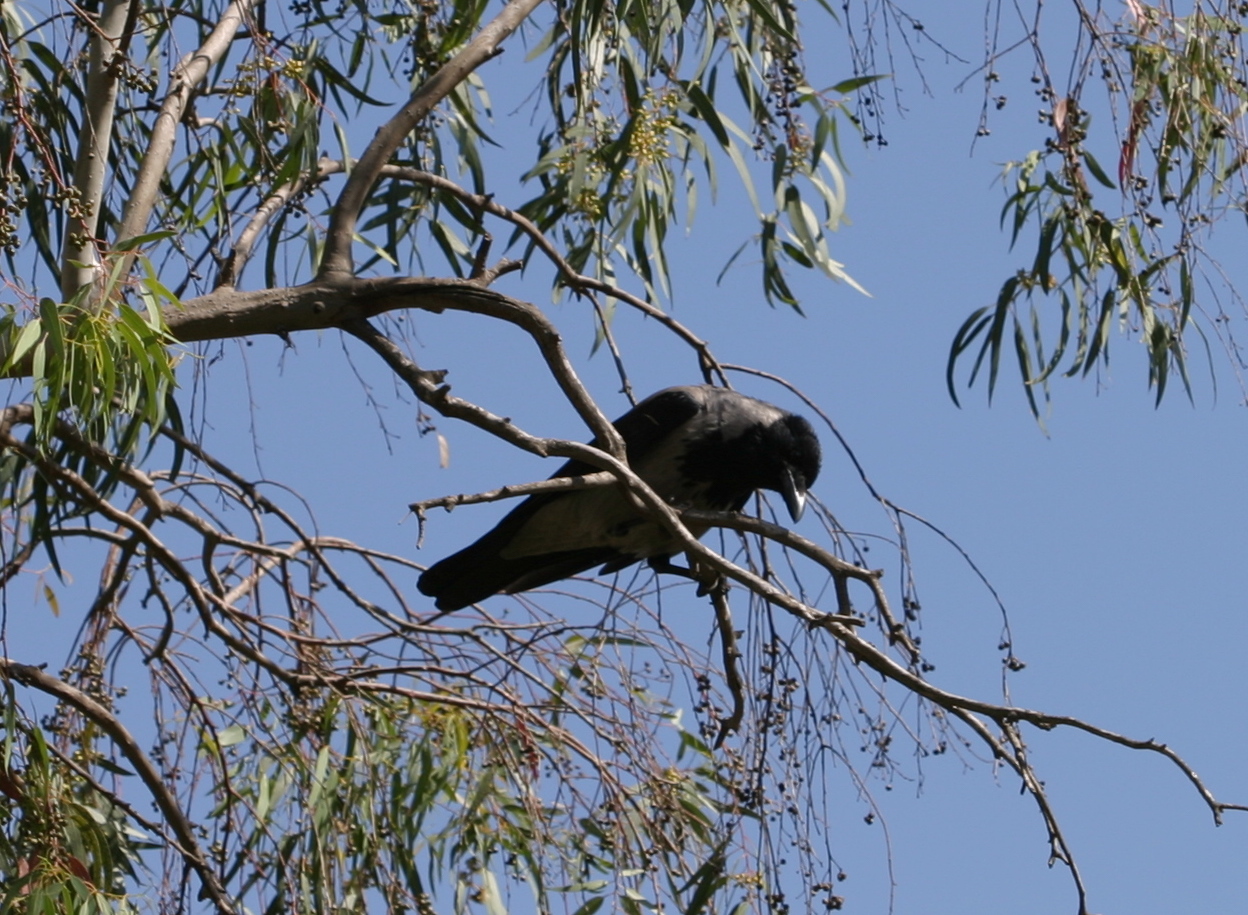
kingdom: Animalia
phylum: Chordata
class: Aves
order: Passeriformes
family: Corvidae
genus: Corvus
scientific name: Corvus cornix
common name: Hooded crow
